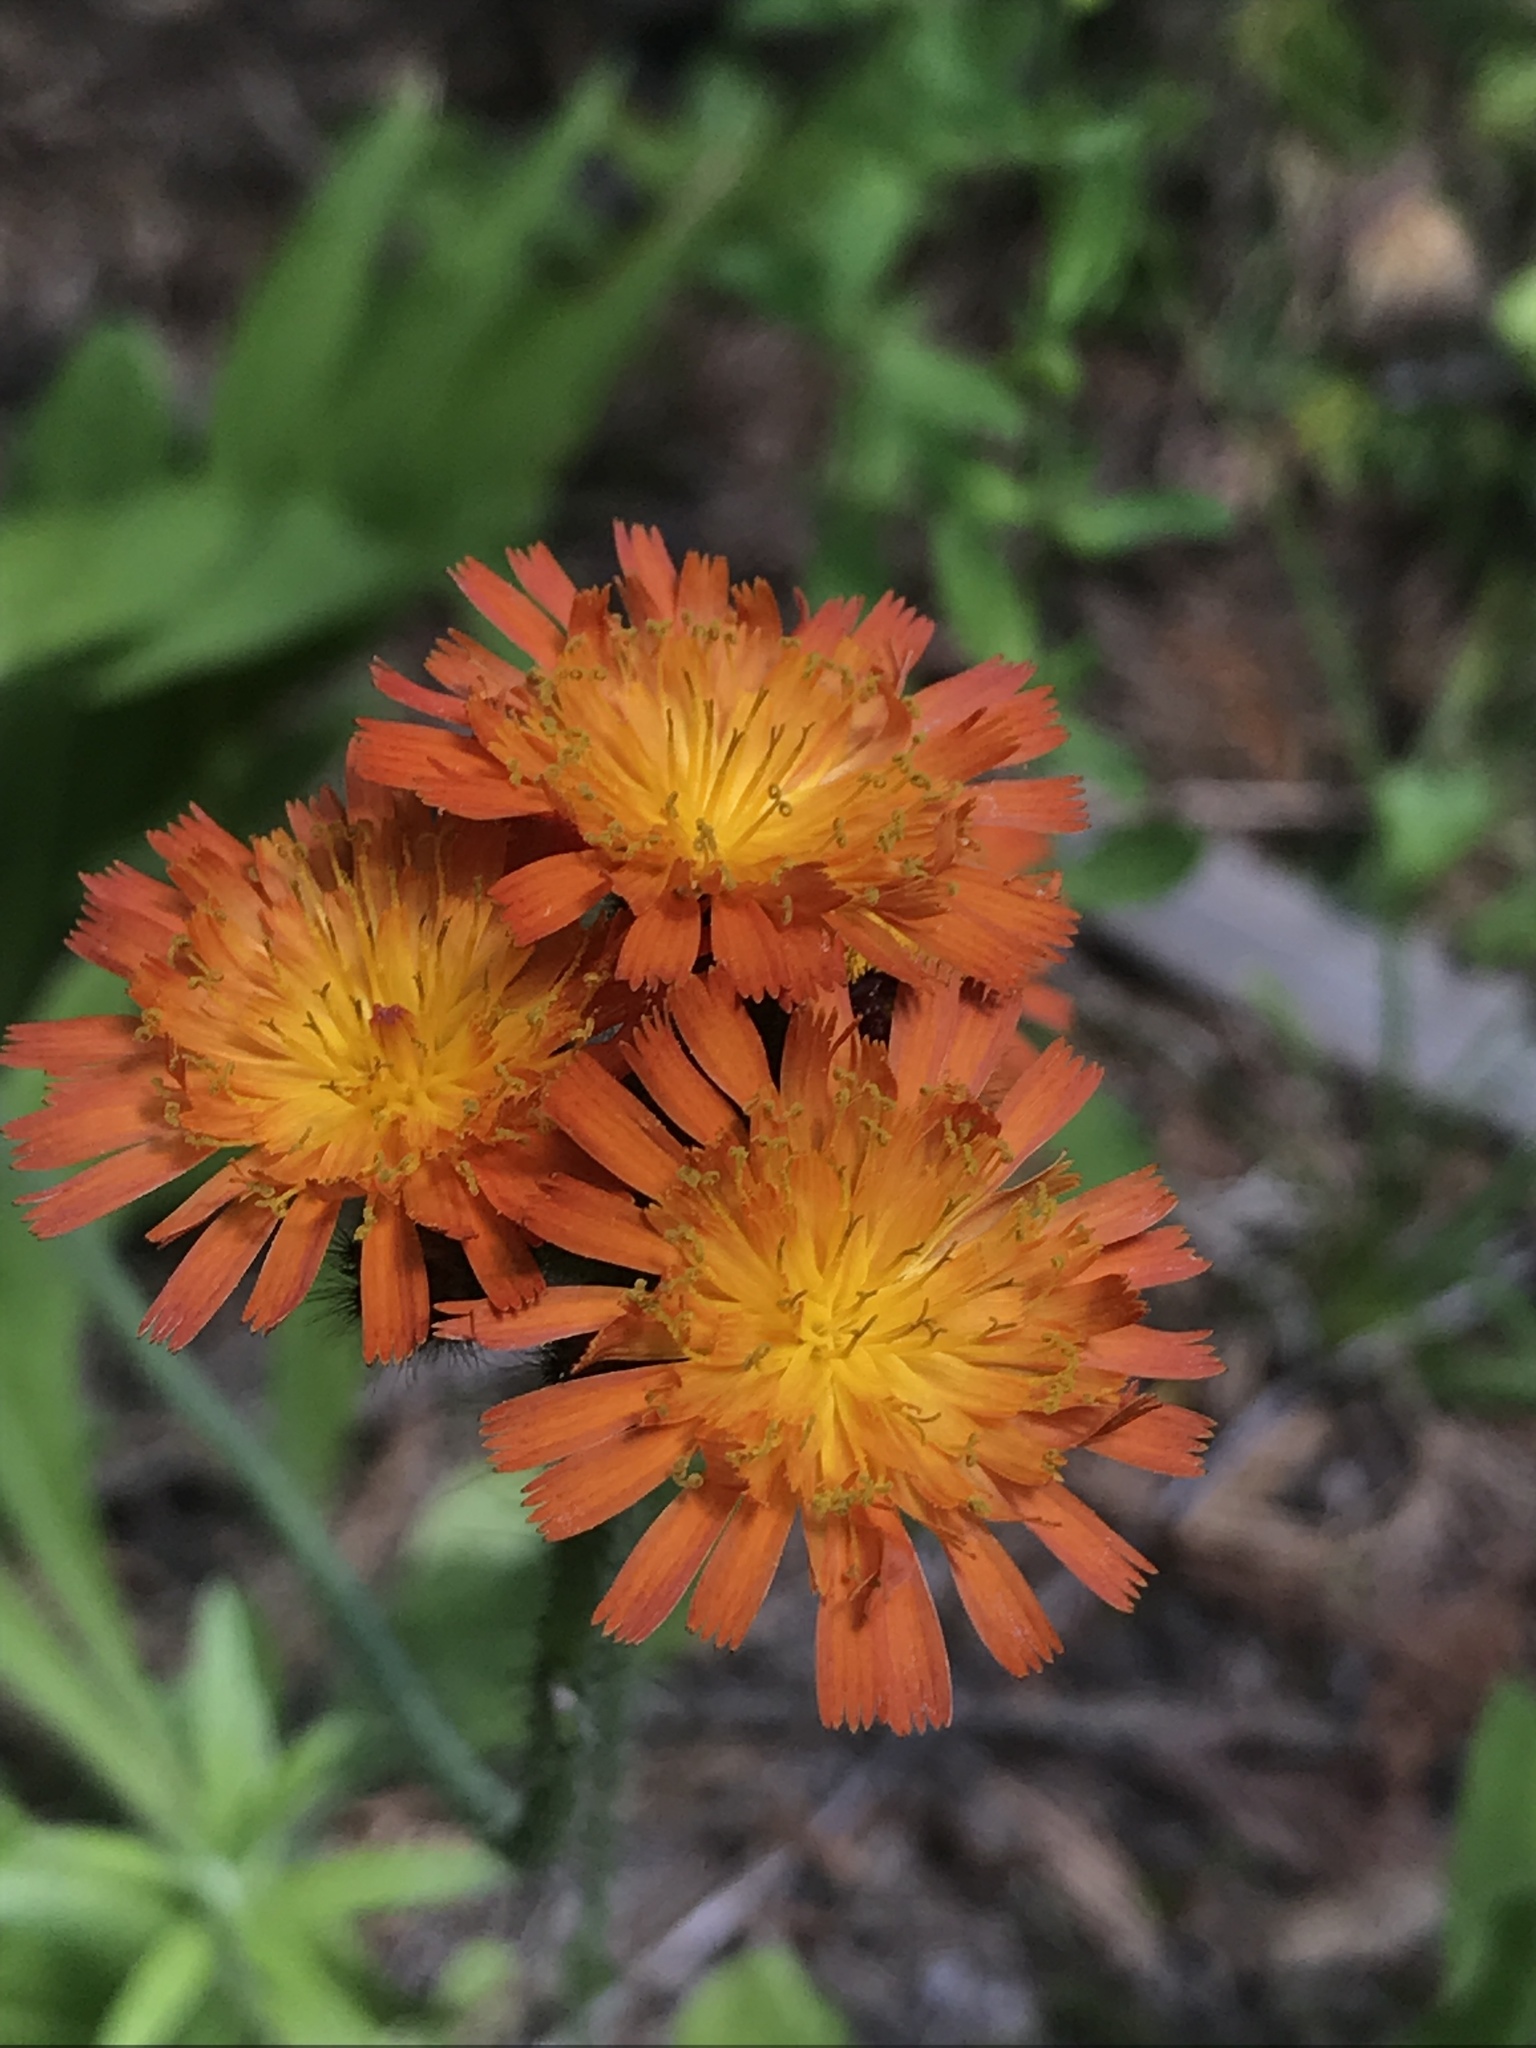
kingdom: Plantae
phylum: Tracheophyta
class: Magnoliopsida
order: Asterales
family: Asteraceae
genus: Pilosella
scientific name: Pilosella aurantiaca
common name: Fox-and-cubs
